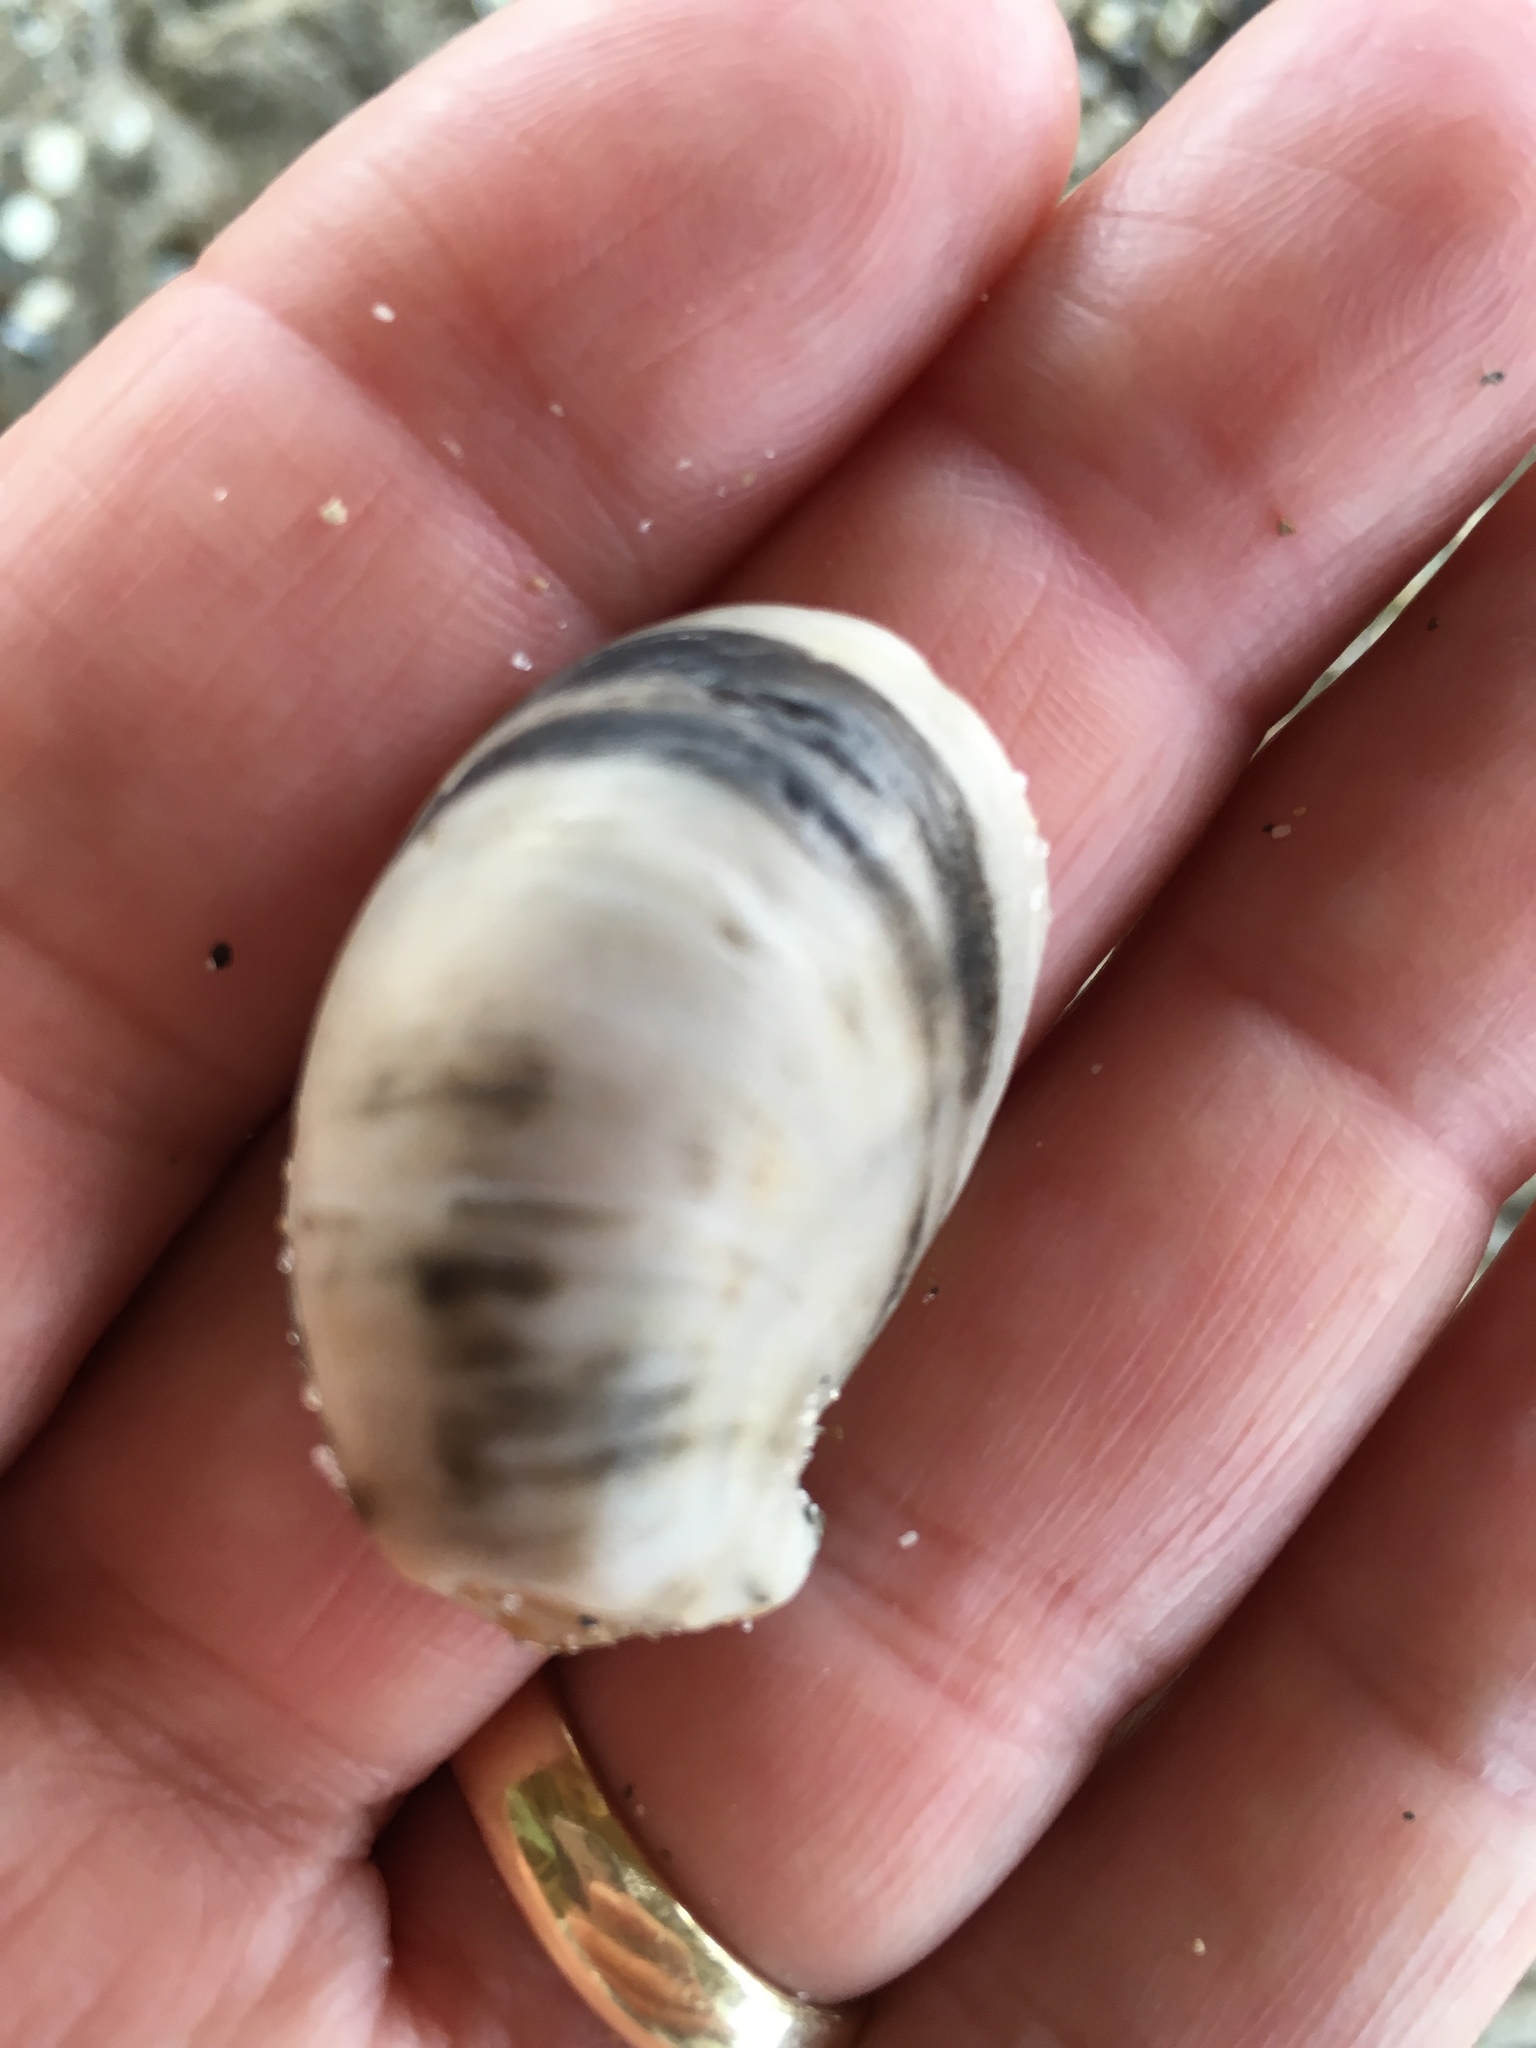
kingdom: Animalia
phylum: Mollusca
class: Gastropoda
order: Littorinimorpha
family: Calyptraeidae
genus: Crepidula
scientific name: Crepidula fornicata
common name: Slipper limpet
